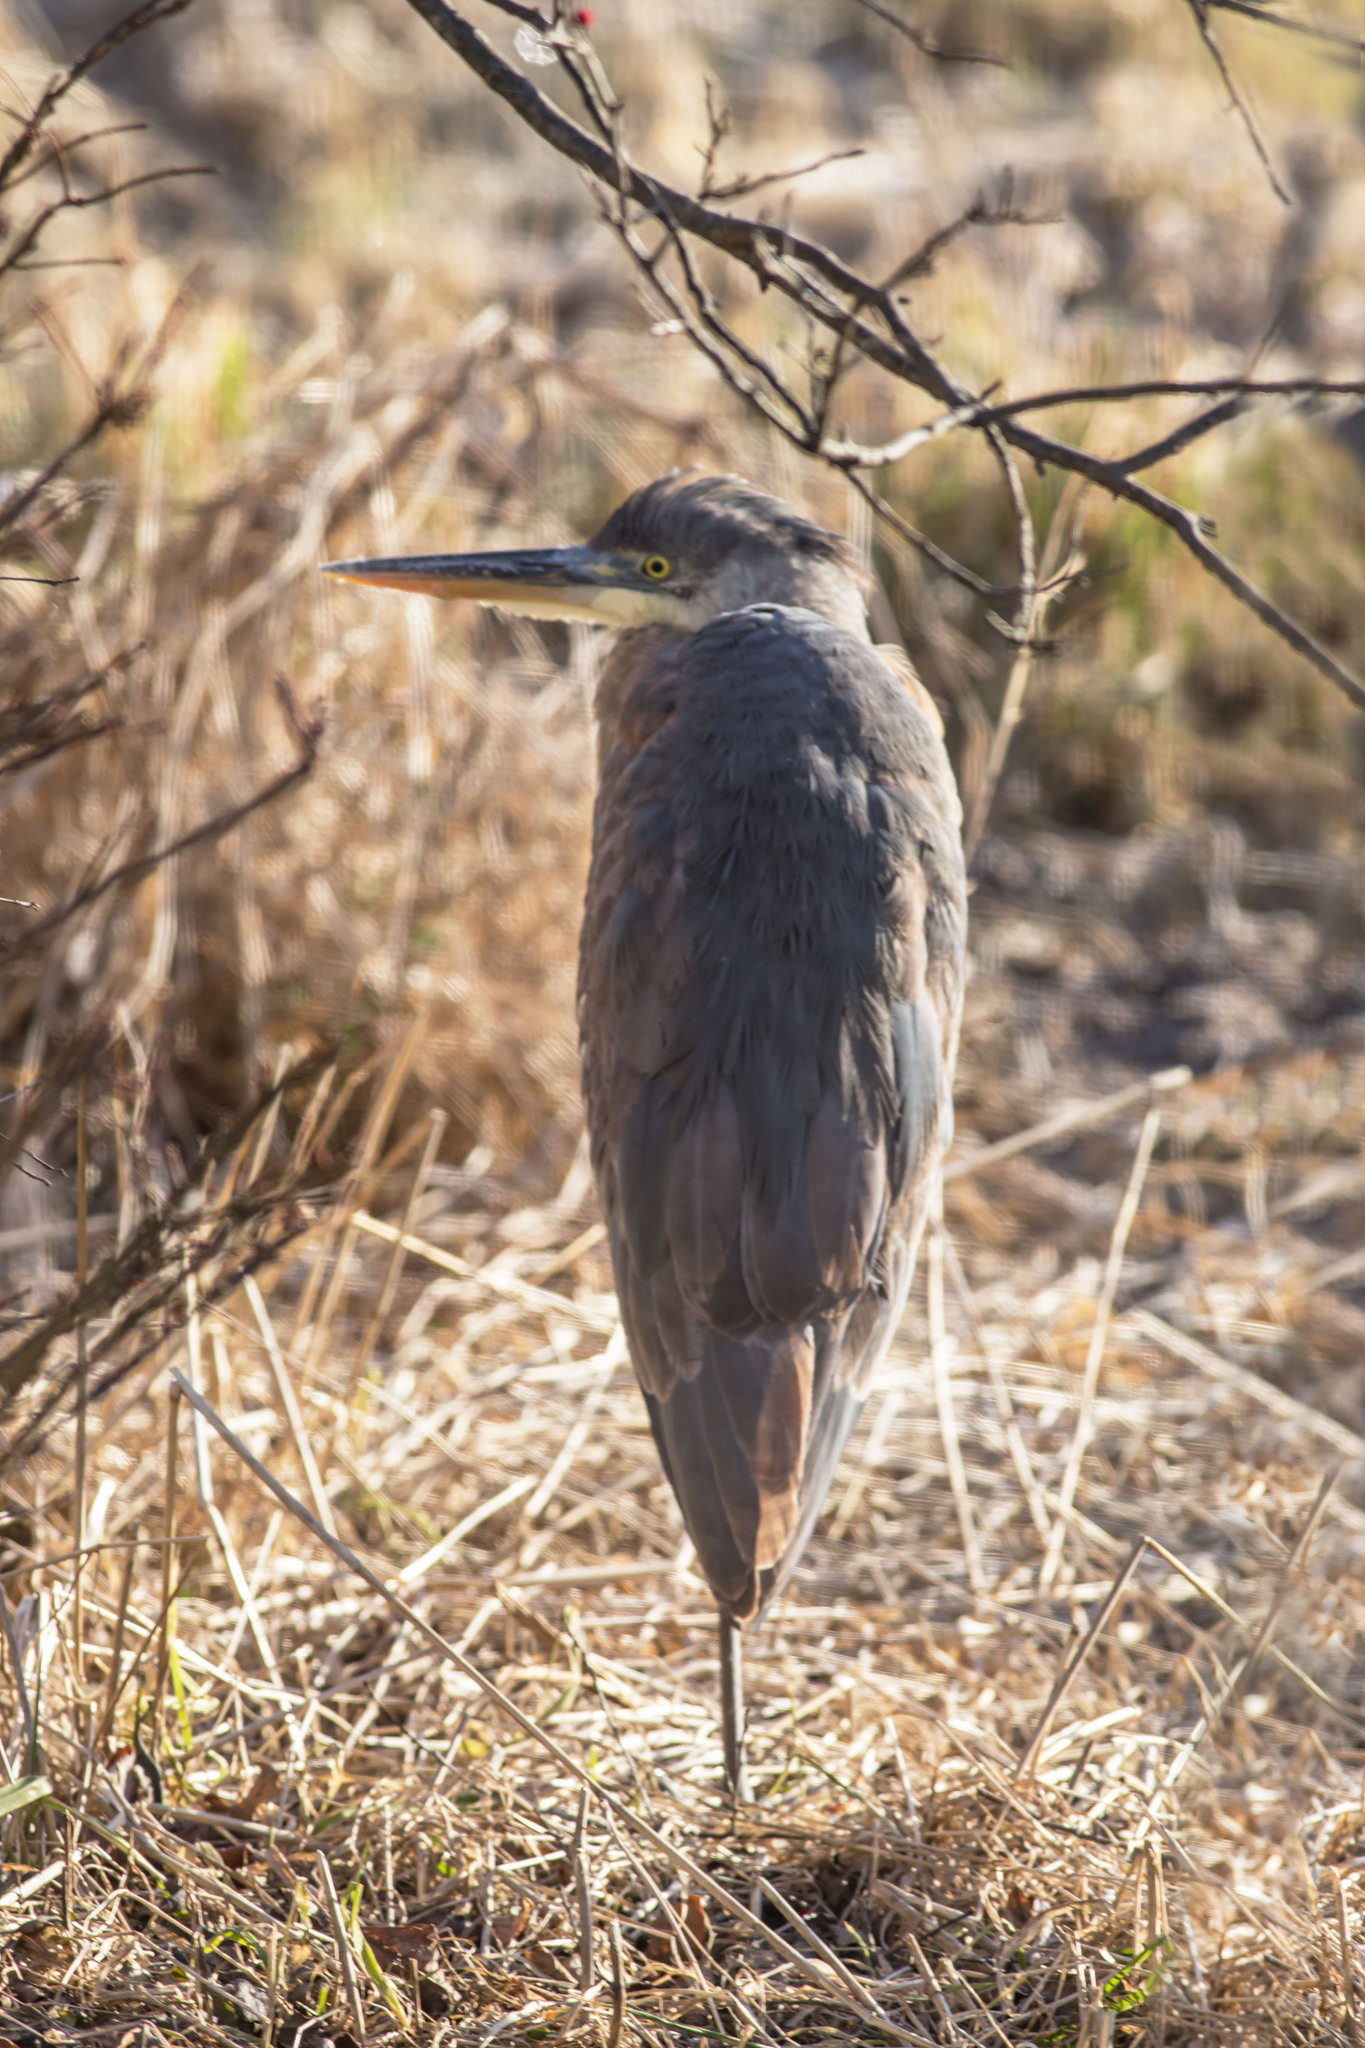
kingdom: Animalia
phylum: Chordata
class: Aves
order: Pelecaniformes
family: Ardeidae
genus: Ardea
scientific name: Ardea herodias
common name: Great blue heron
